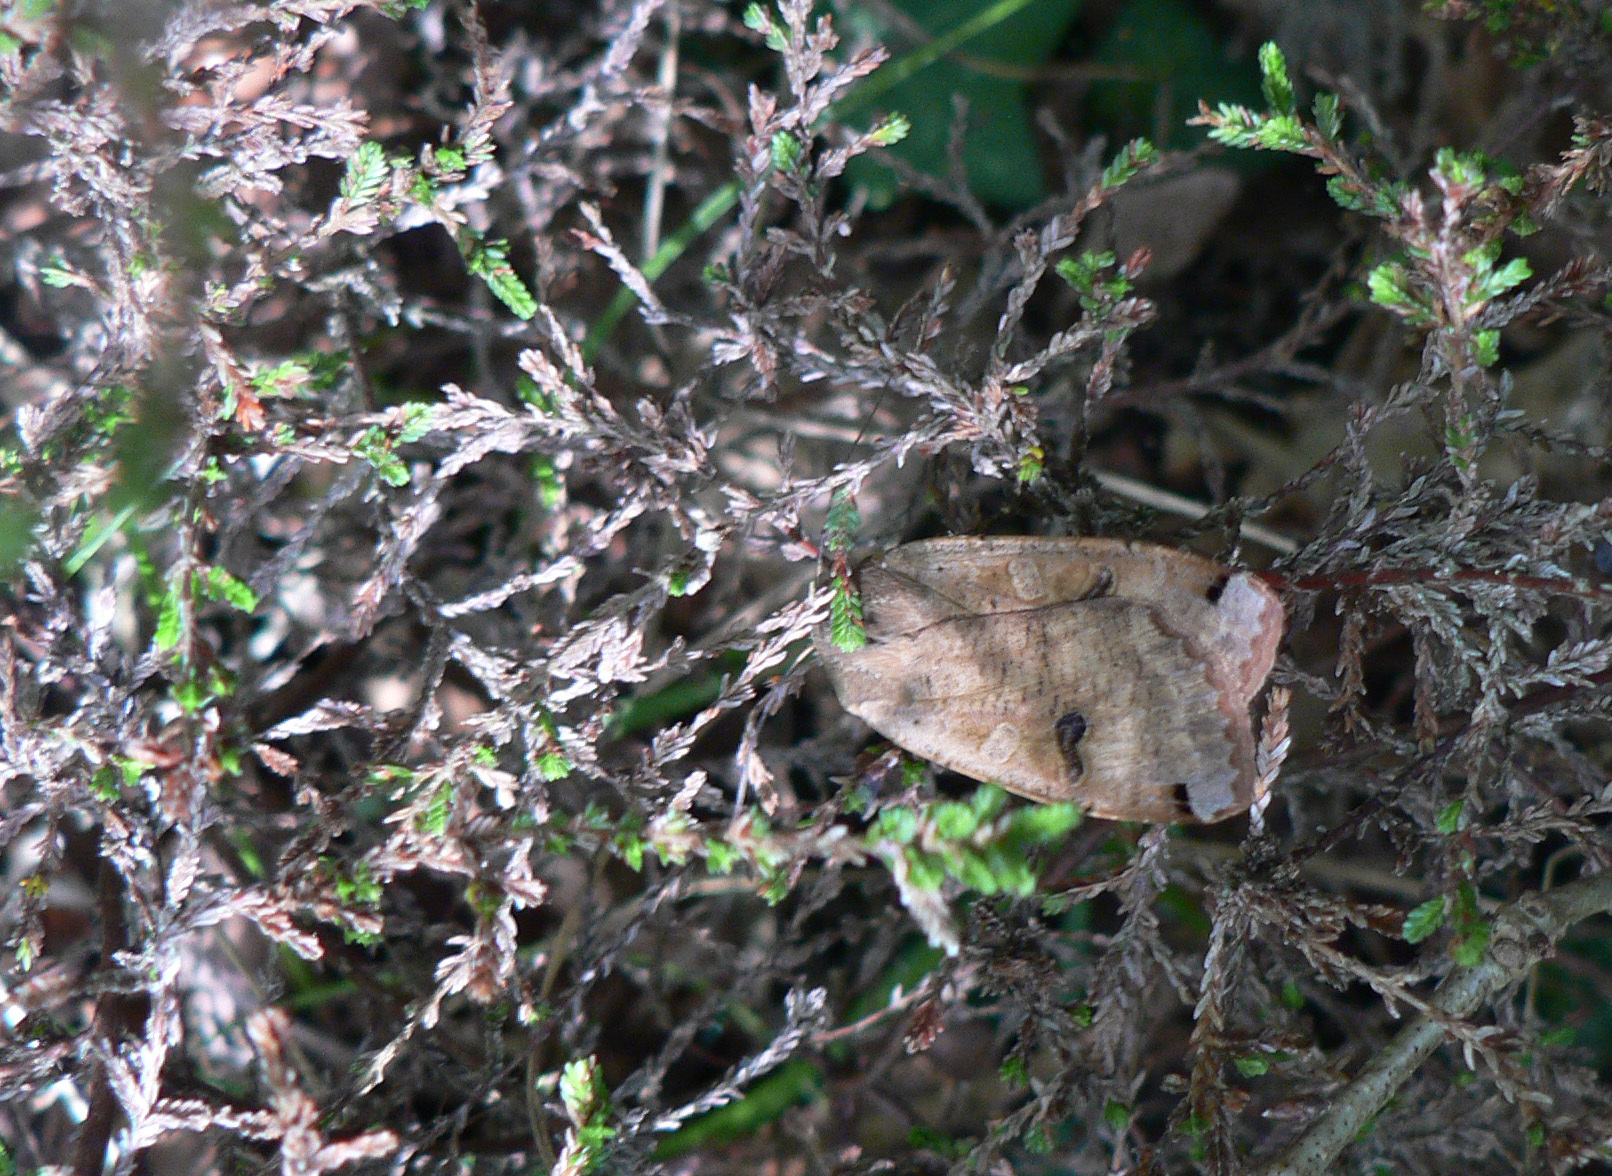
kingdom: Animalia
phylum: Arthropoda
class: Insecta
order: Lepidoptera
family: Noctuidae
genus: Noctua
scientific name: Noctua pronuba
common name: Large yellow underwing
